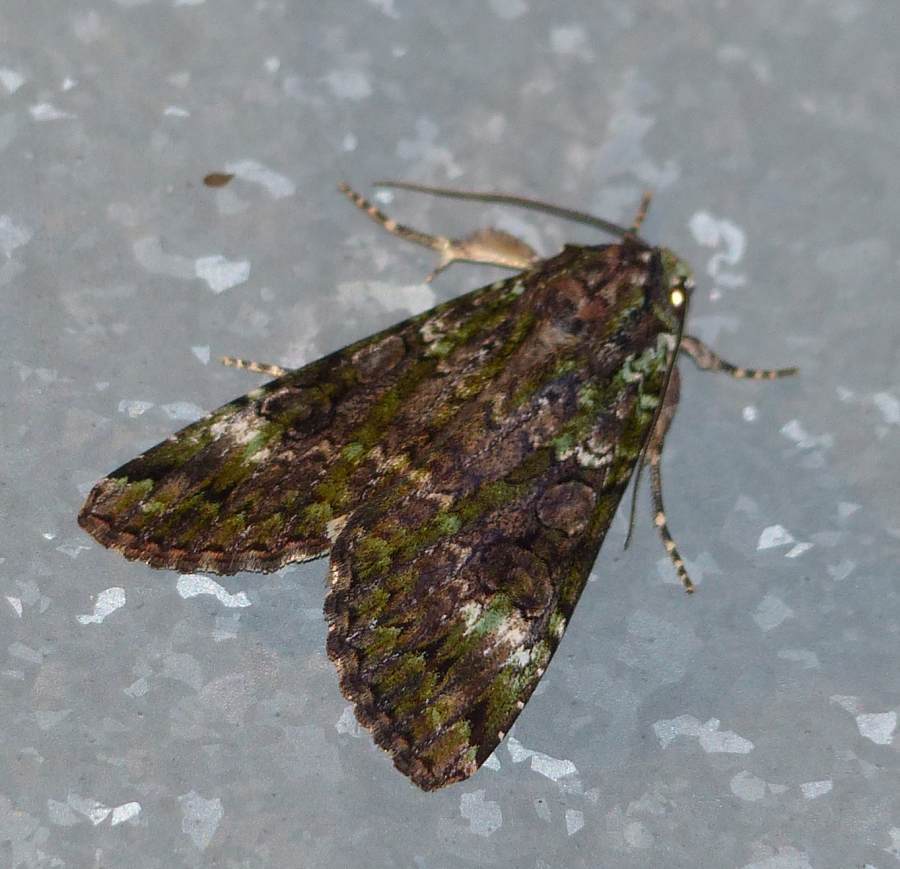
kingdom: Animalia
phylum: Arthropoda
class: Insecta
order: Lepidoptera
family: Noctuidae
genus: Anaplectoides
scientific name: Anaplectoides prasina
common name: Green arches
